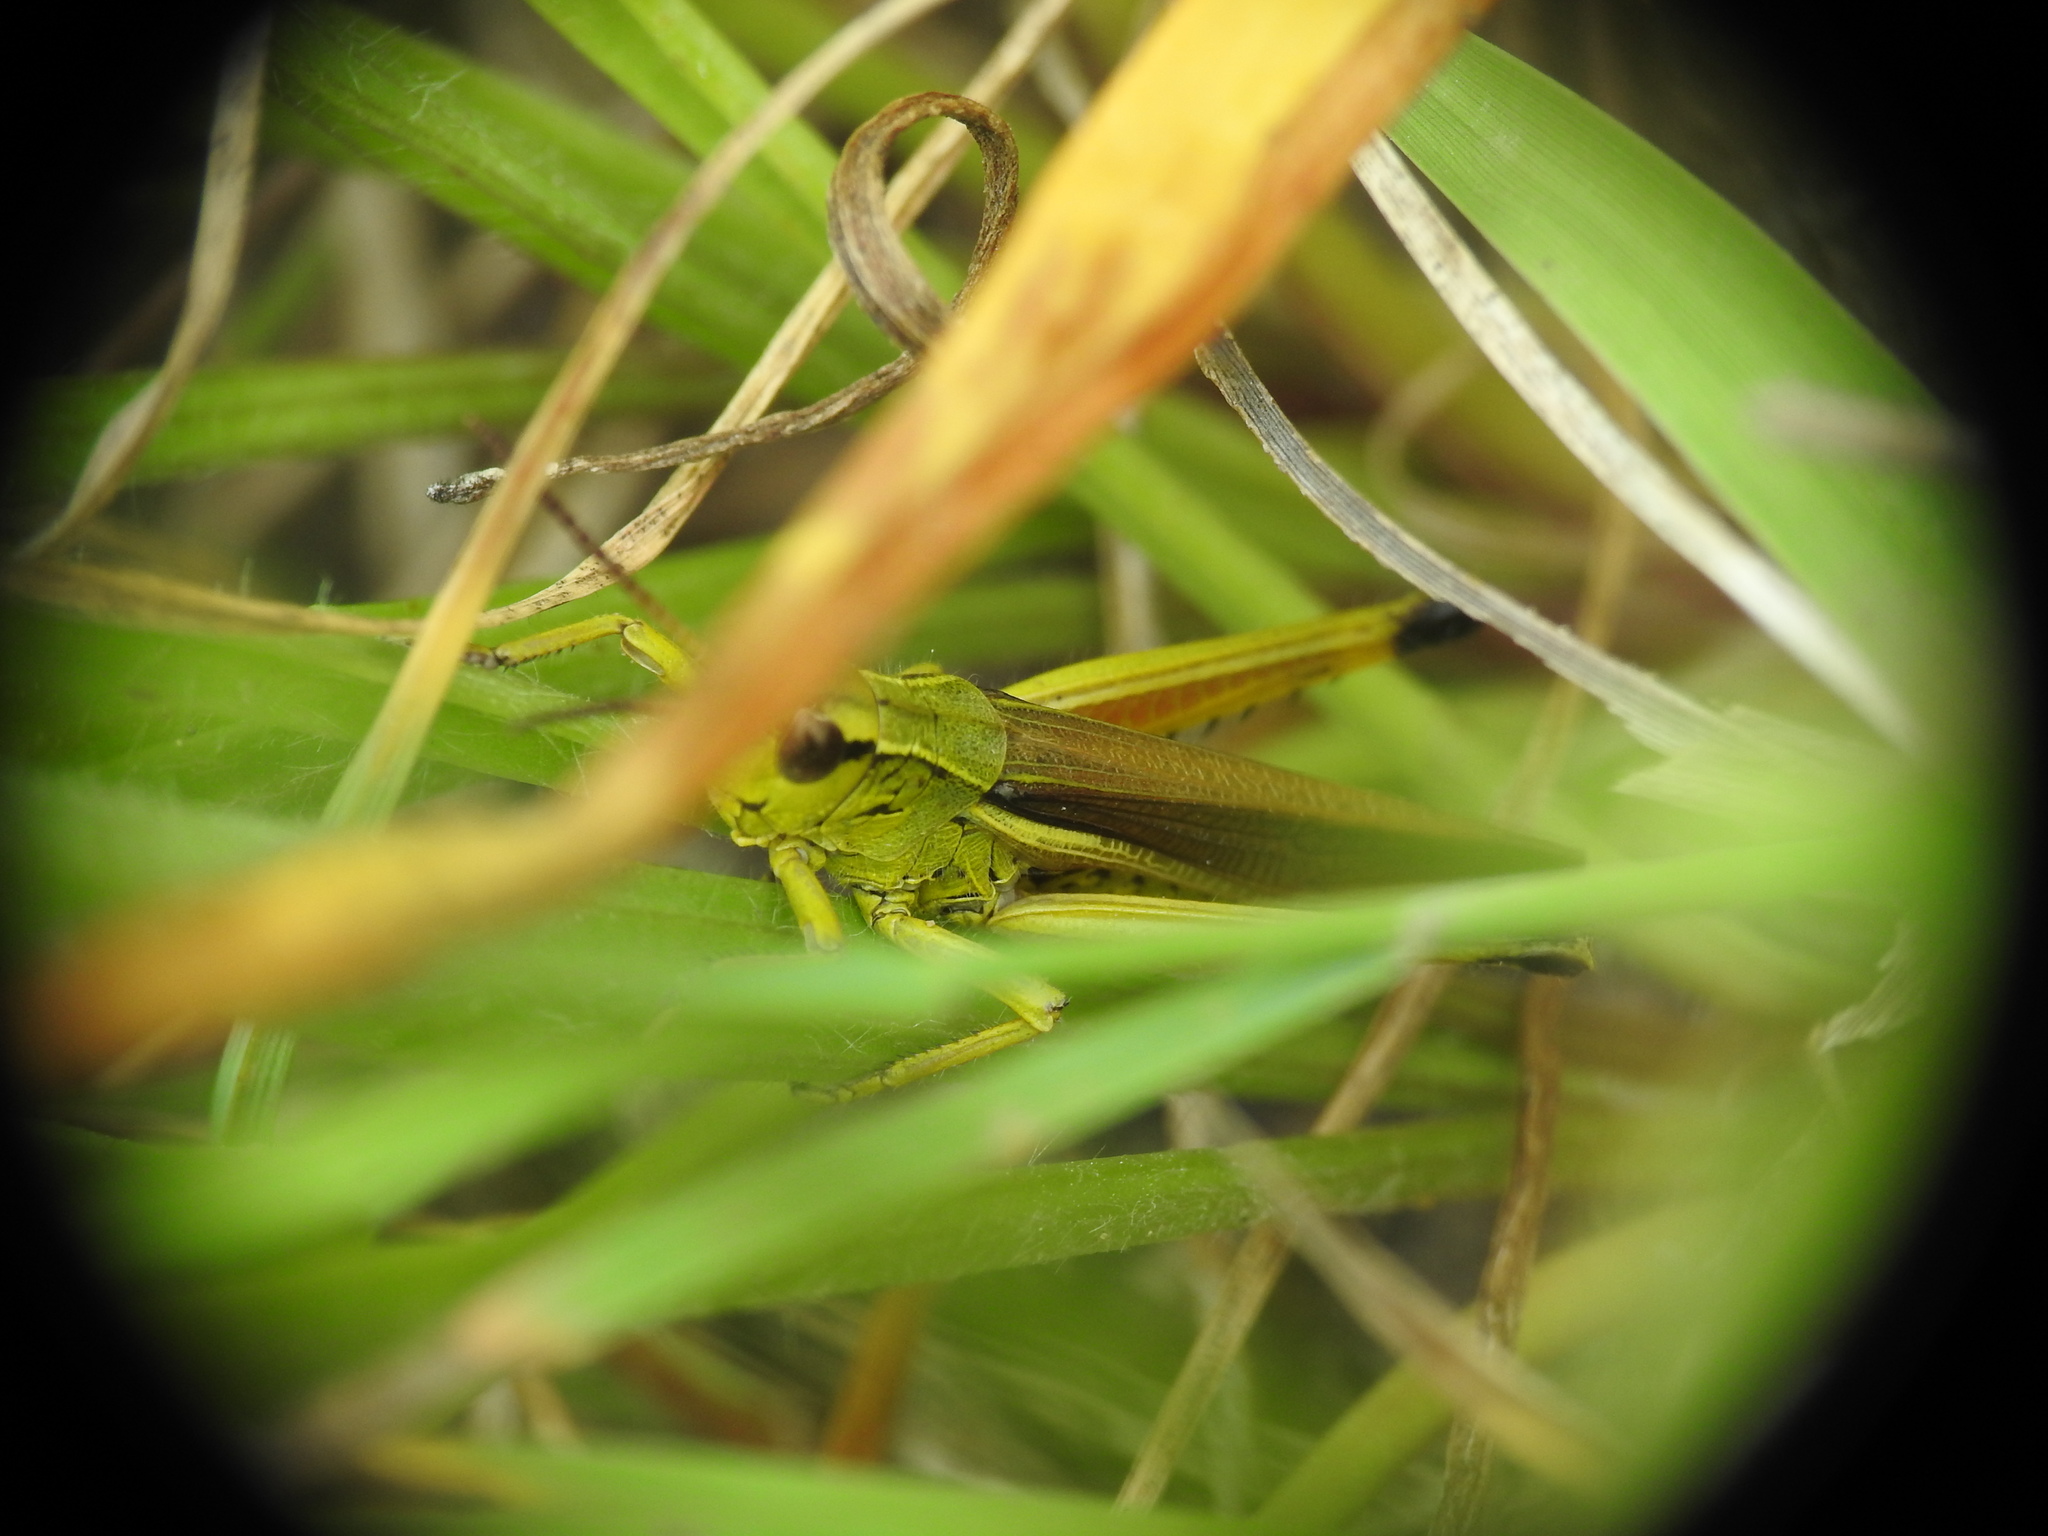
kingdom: Animalia
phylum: Arthropoda
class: Insecta
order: Orthoptera
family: Acrididae
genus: Stethophyma
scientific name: Stethophyma grossum
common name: Large marsh grasshopper
